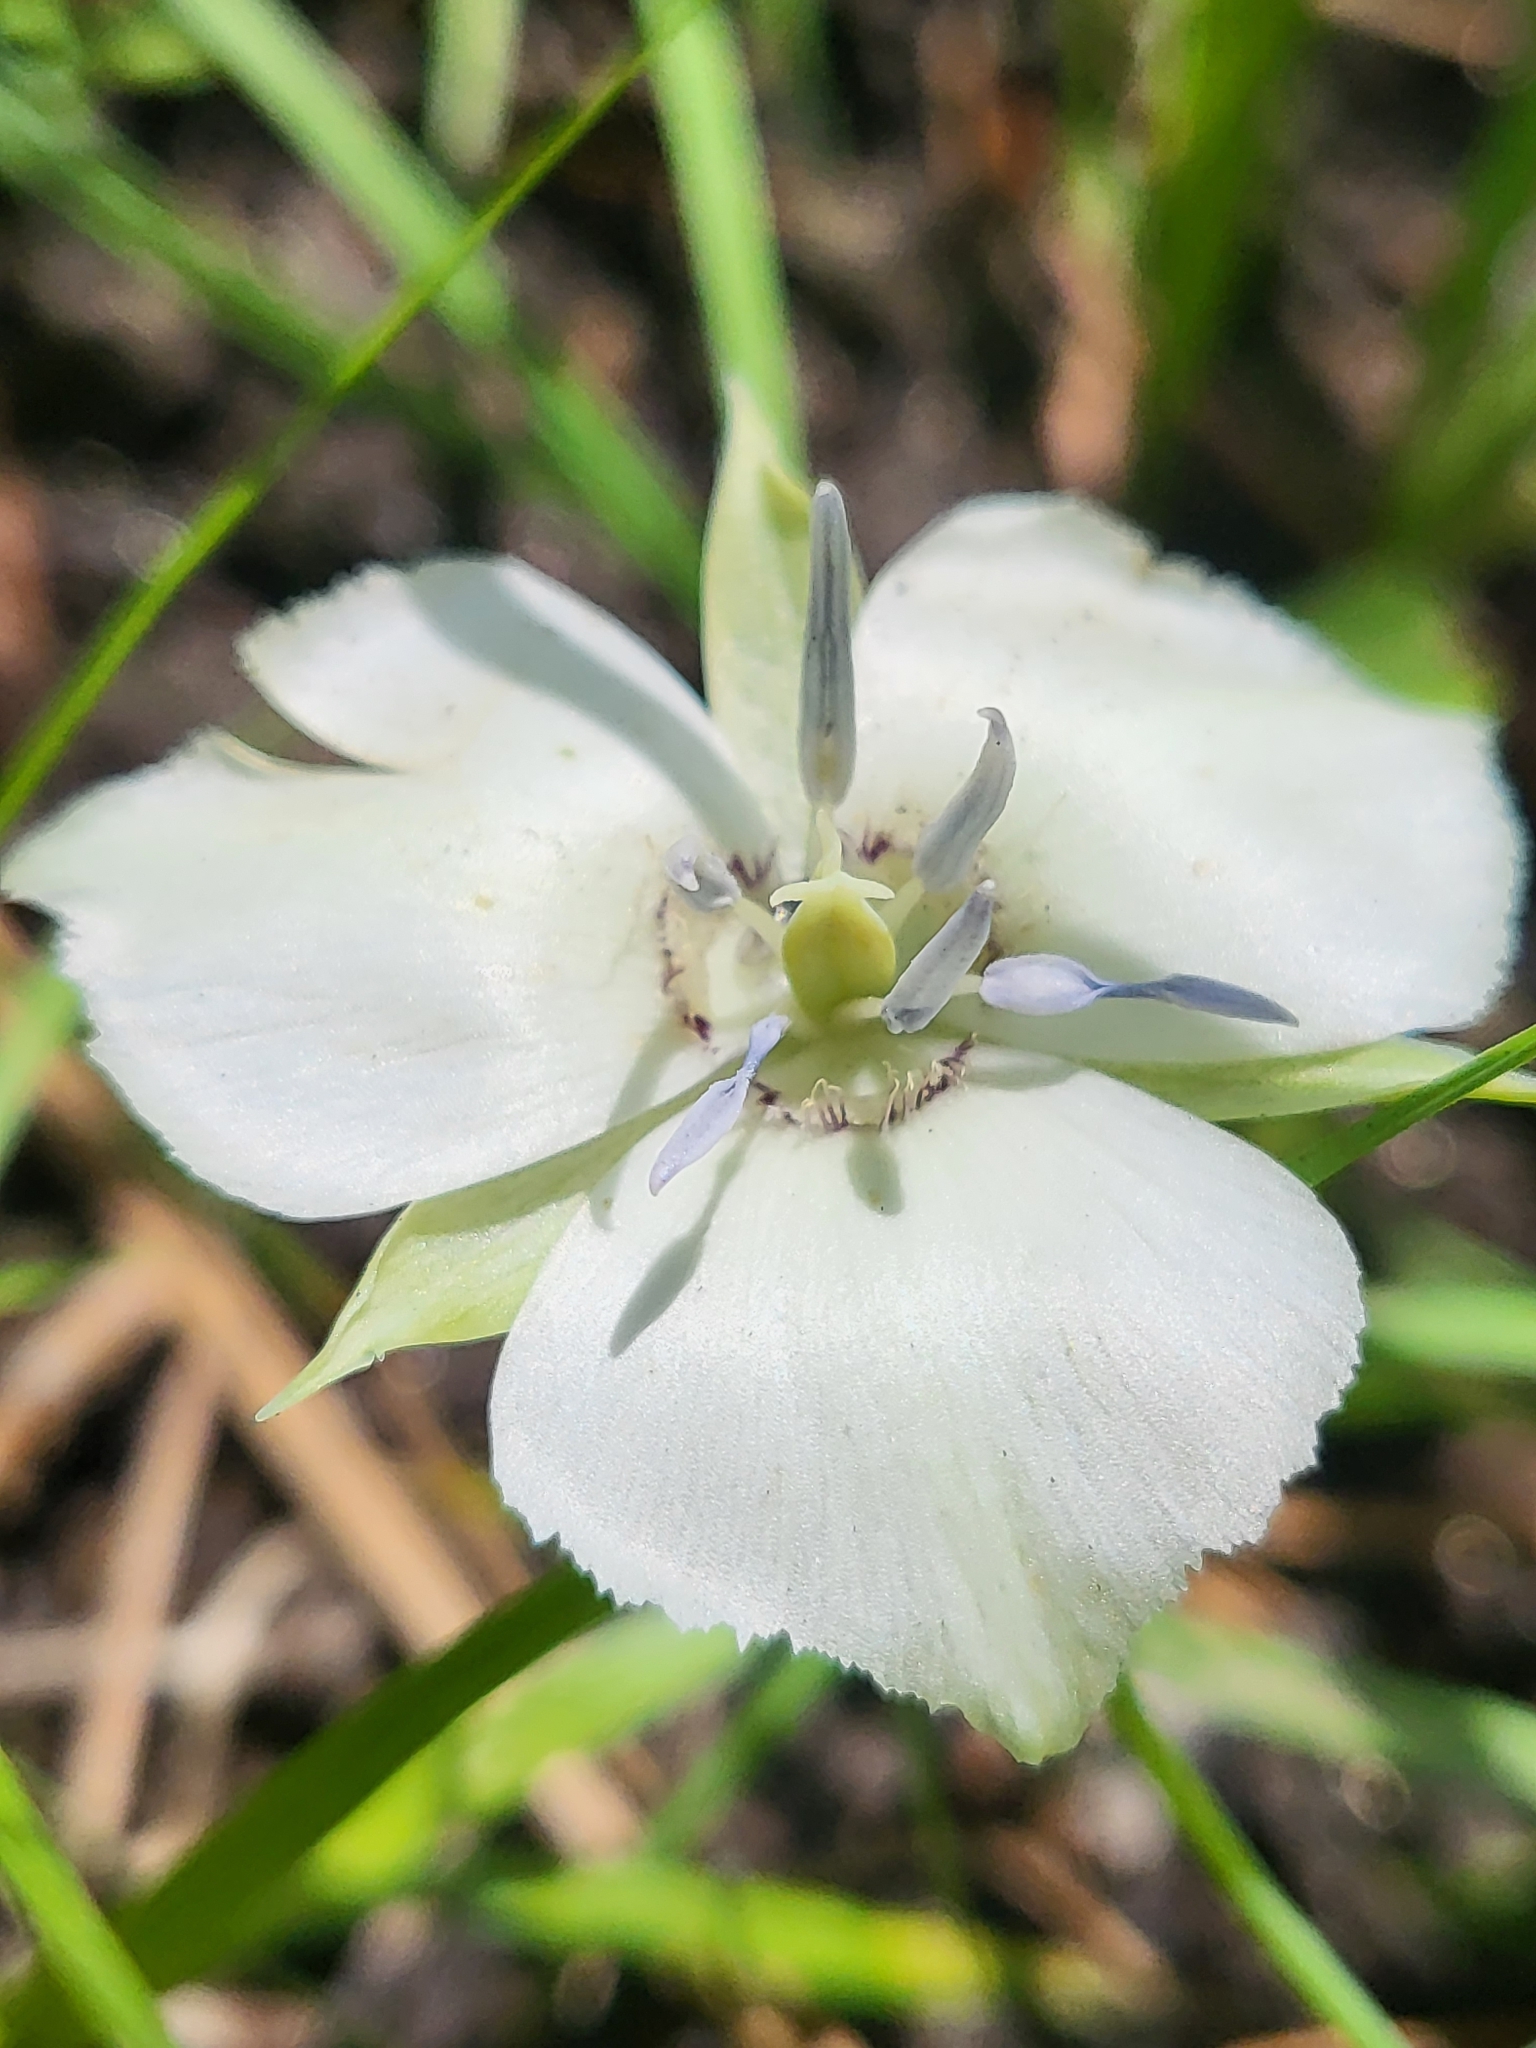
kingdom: Plantae
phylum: Tracheophyta
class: Liliopsida
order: Liliales
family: Liliaceae
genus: Calochortus
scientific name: Calochortus minimus
